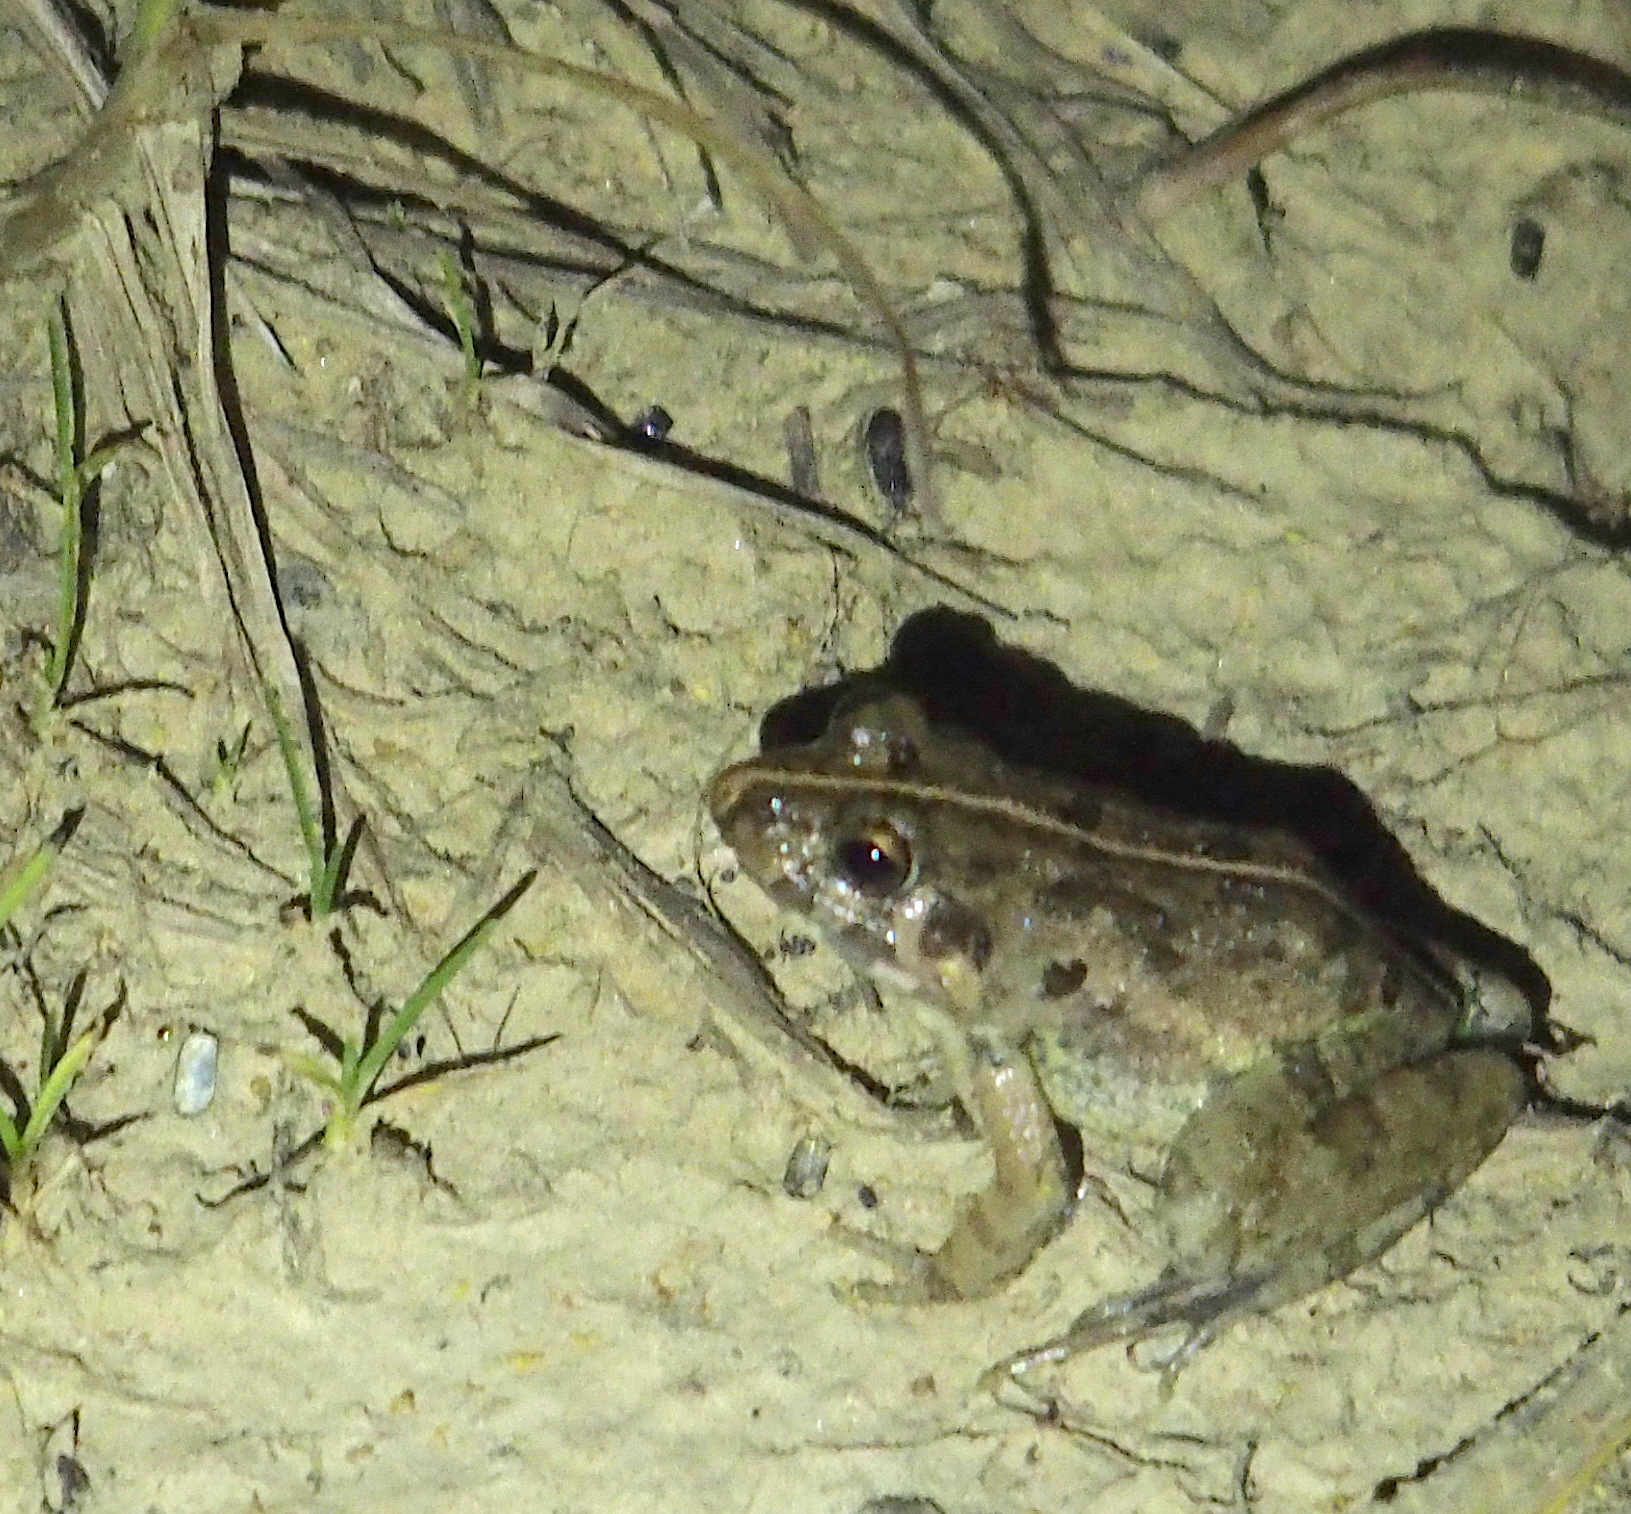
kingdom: Animalia
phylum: Chordata
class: Amphibia
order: Anura
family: Dicroglossidae
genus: Fejervarya
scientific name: Fejervarya limnocharis
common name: Asian grass frog/common pond frog/field frog/grass frog/indian rice frog
